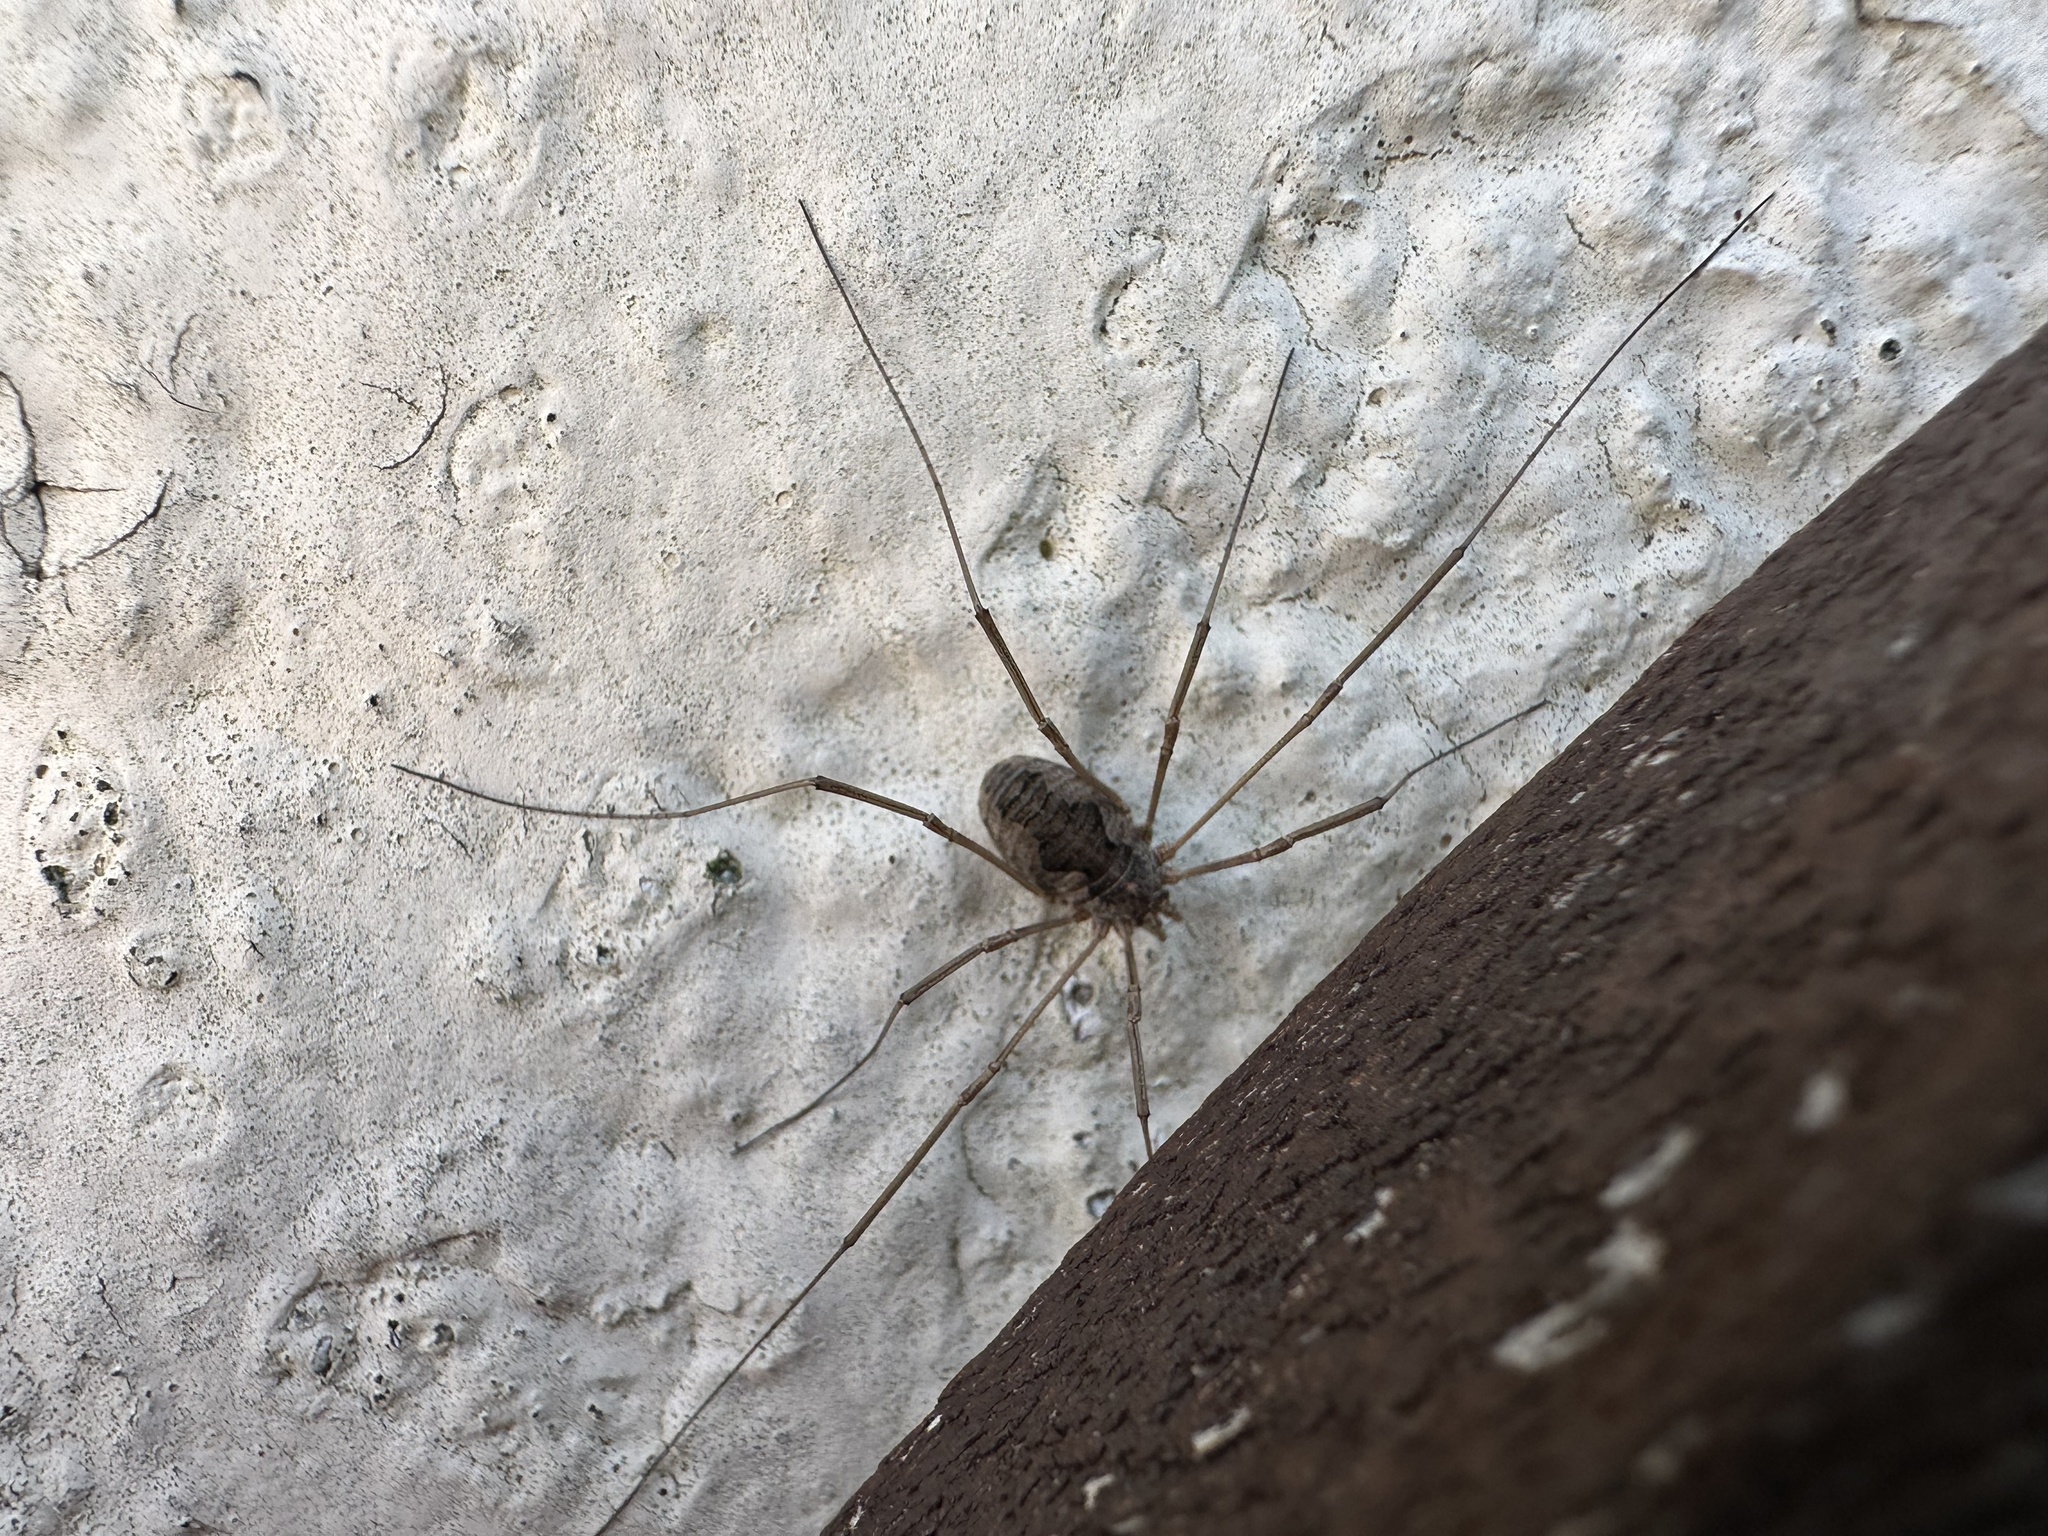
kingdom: Animalia
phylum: Arthropoda
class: Arachnida
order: Opiliones
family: Phalangiidae
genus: Phalangium
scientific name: Phalangium opilio
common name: Daddy longleg
